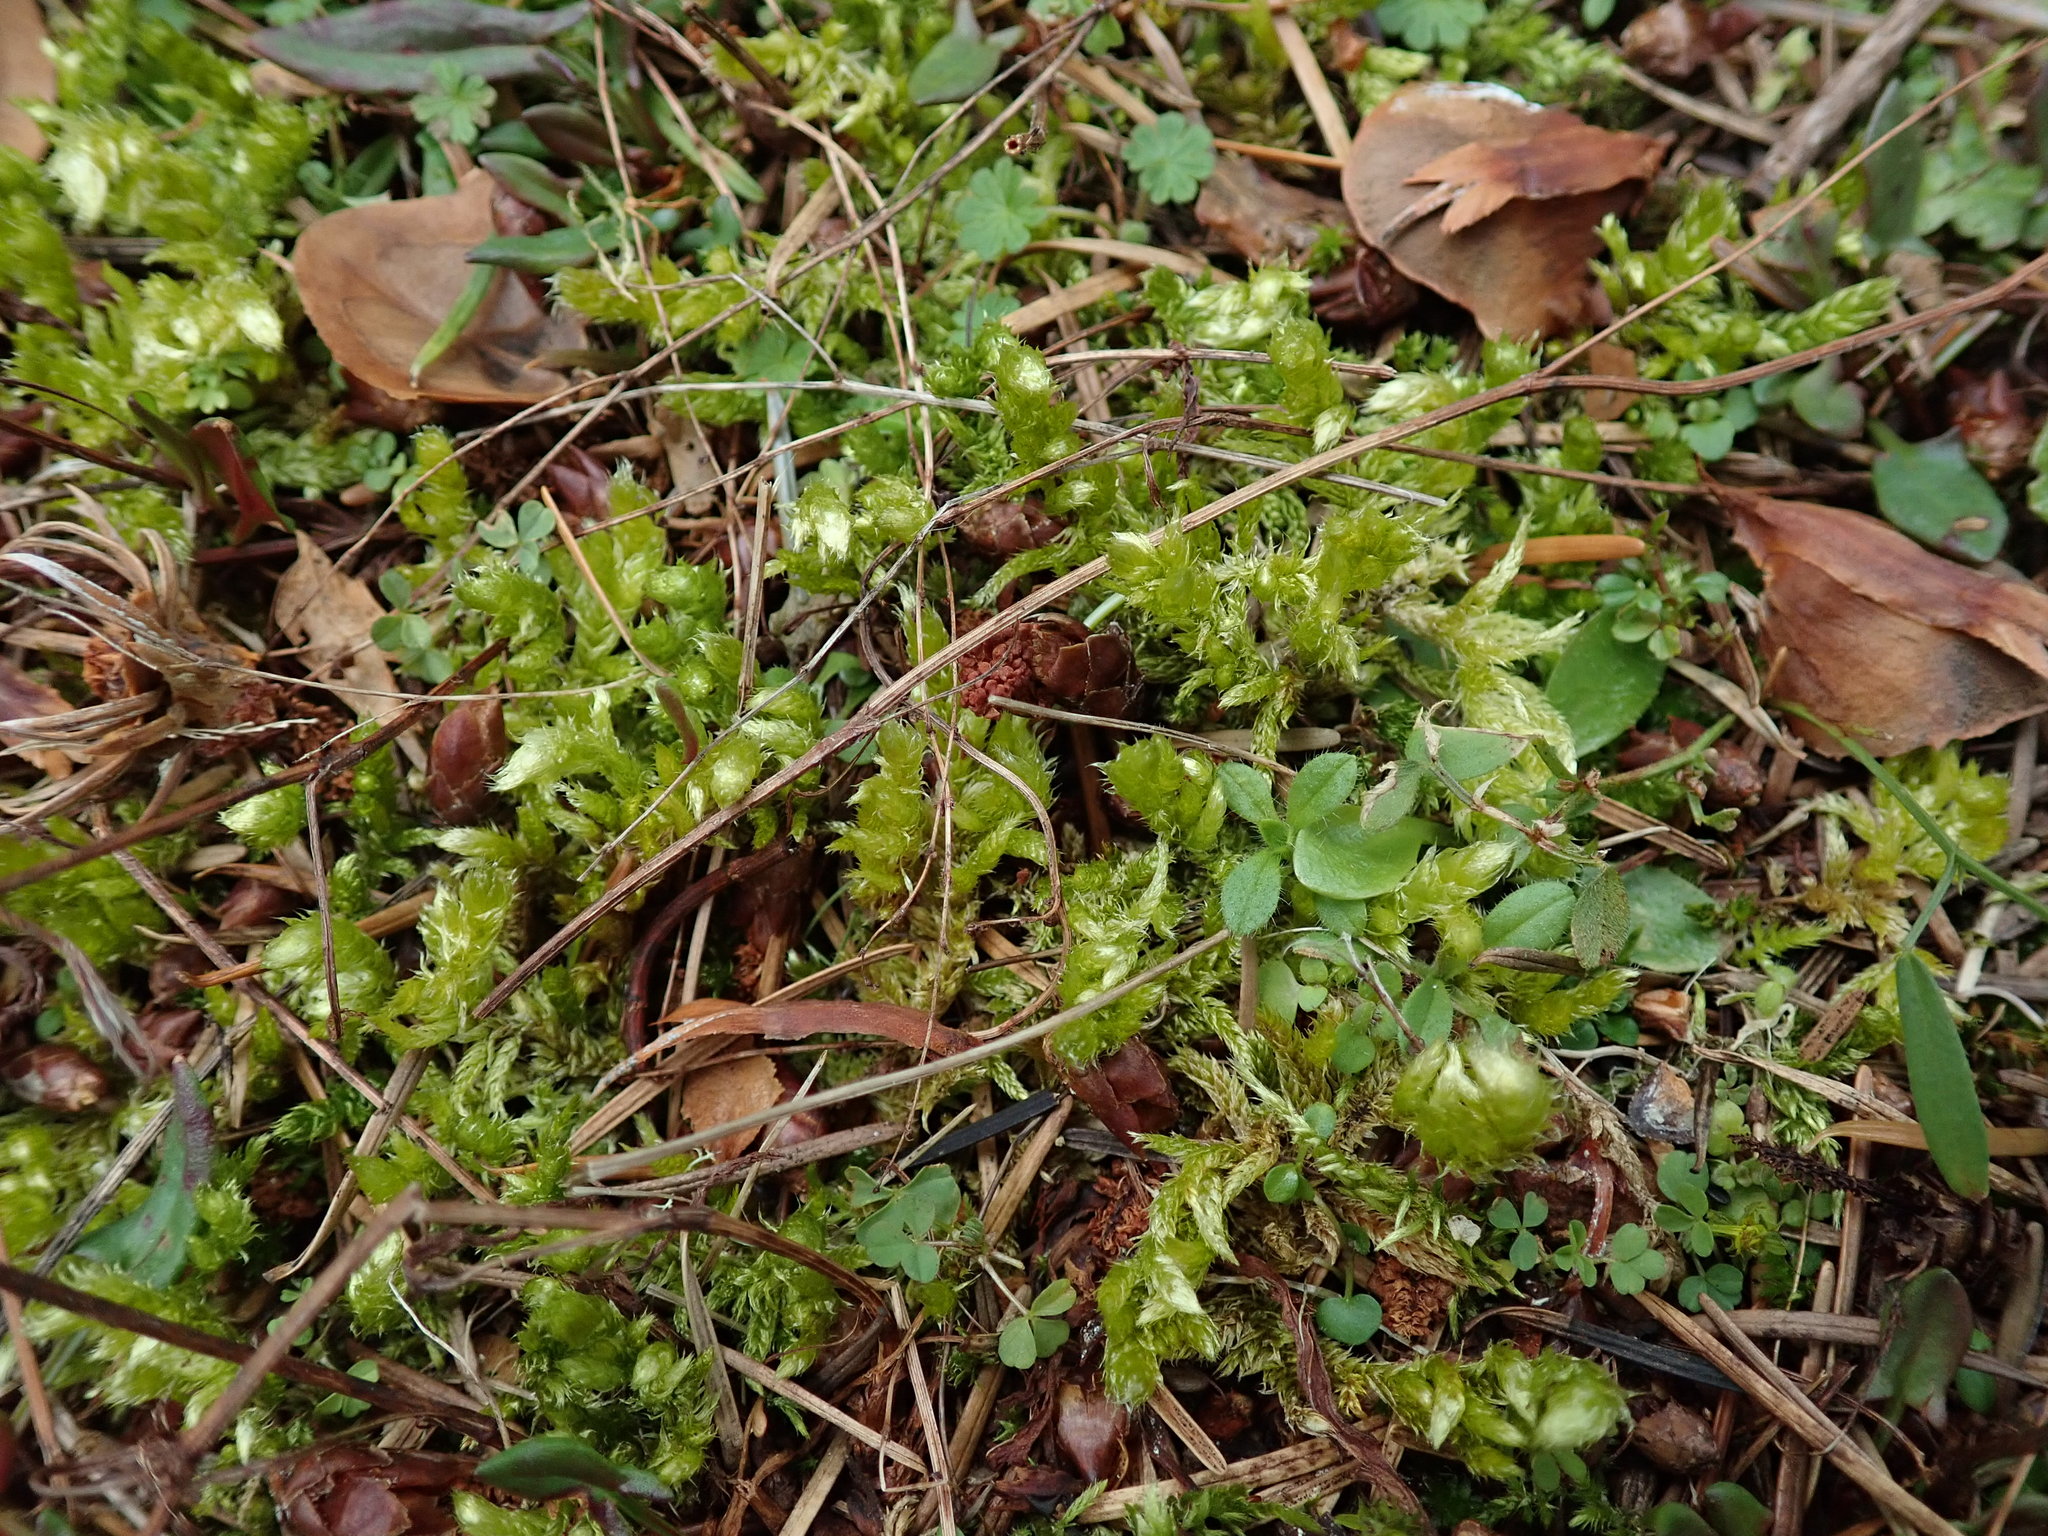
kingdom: Plantae
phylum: Bryophyta
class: Bryopsida
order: Hypnales
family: Brachytheciaceae
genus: Homalothecium
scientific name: Homalothecium megaptilum
